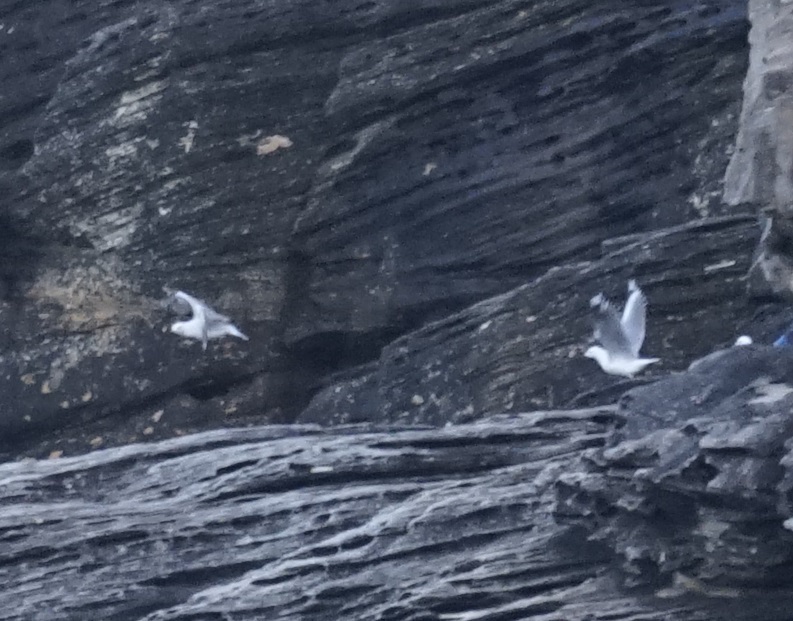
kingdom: Animalia
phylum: Chordata
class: Aves
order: Charadriiformes
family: Laridae
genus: Chroicocephalus
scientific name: Chroicocephalus novaehollandiae
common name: Silver gull
